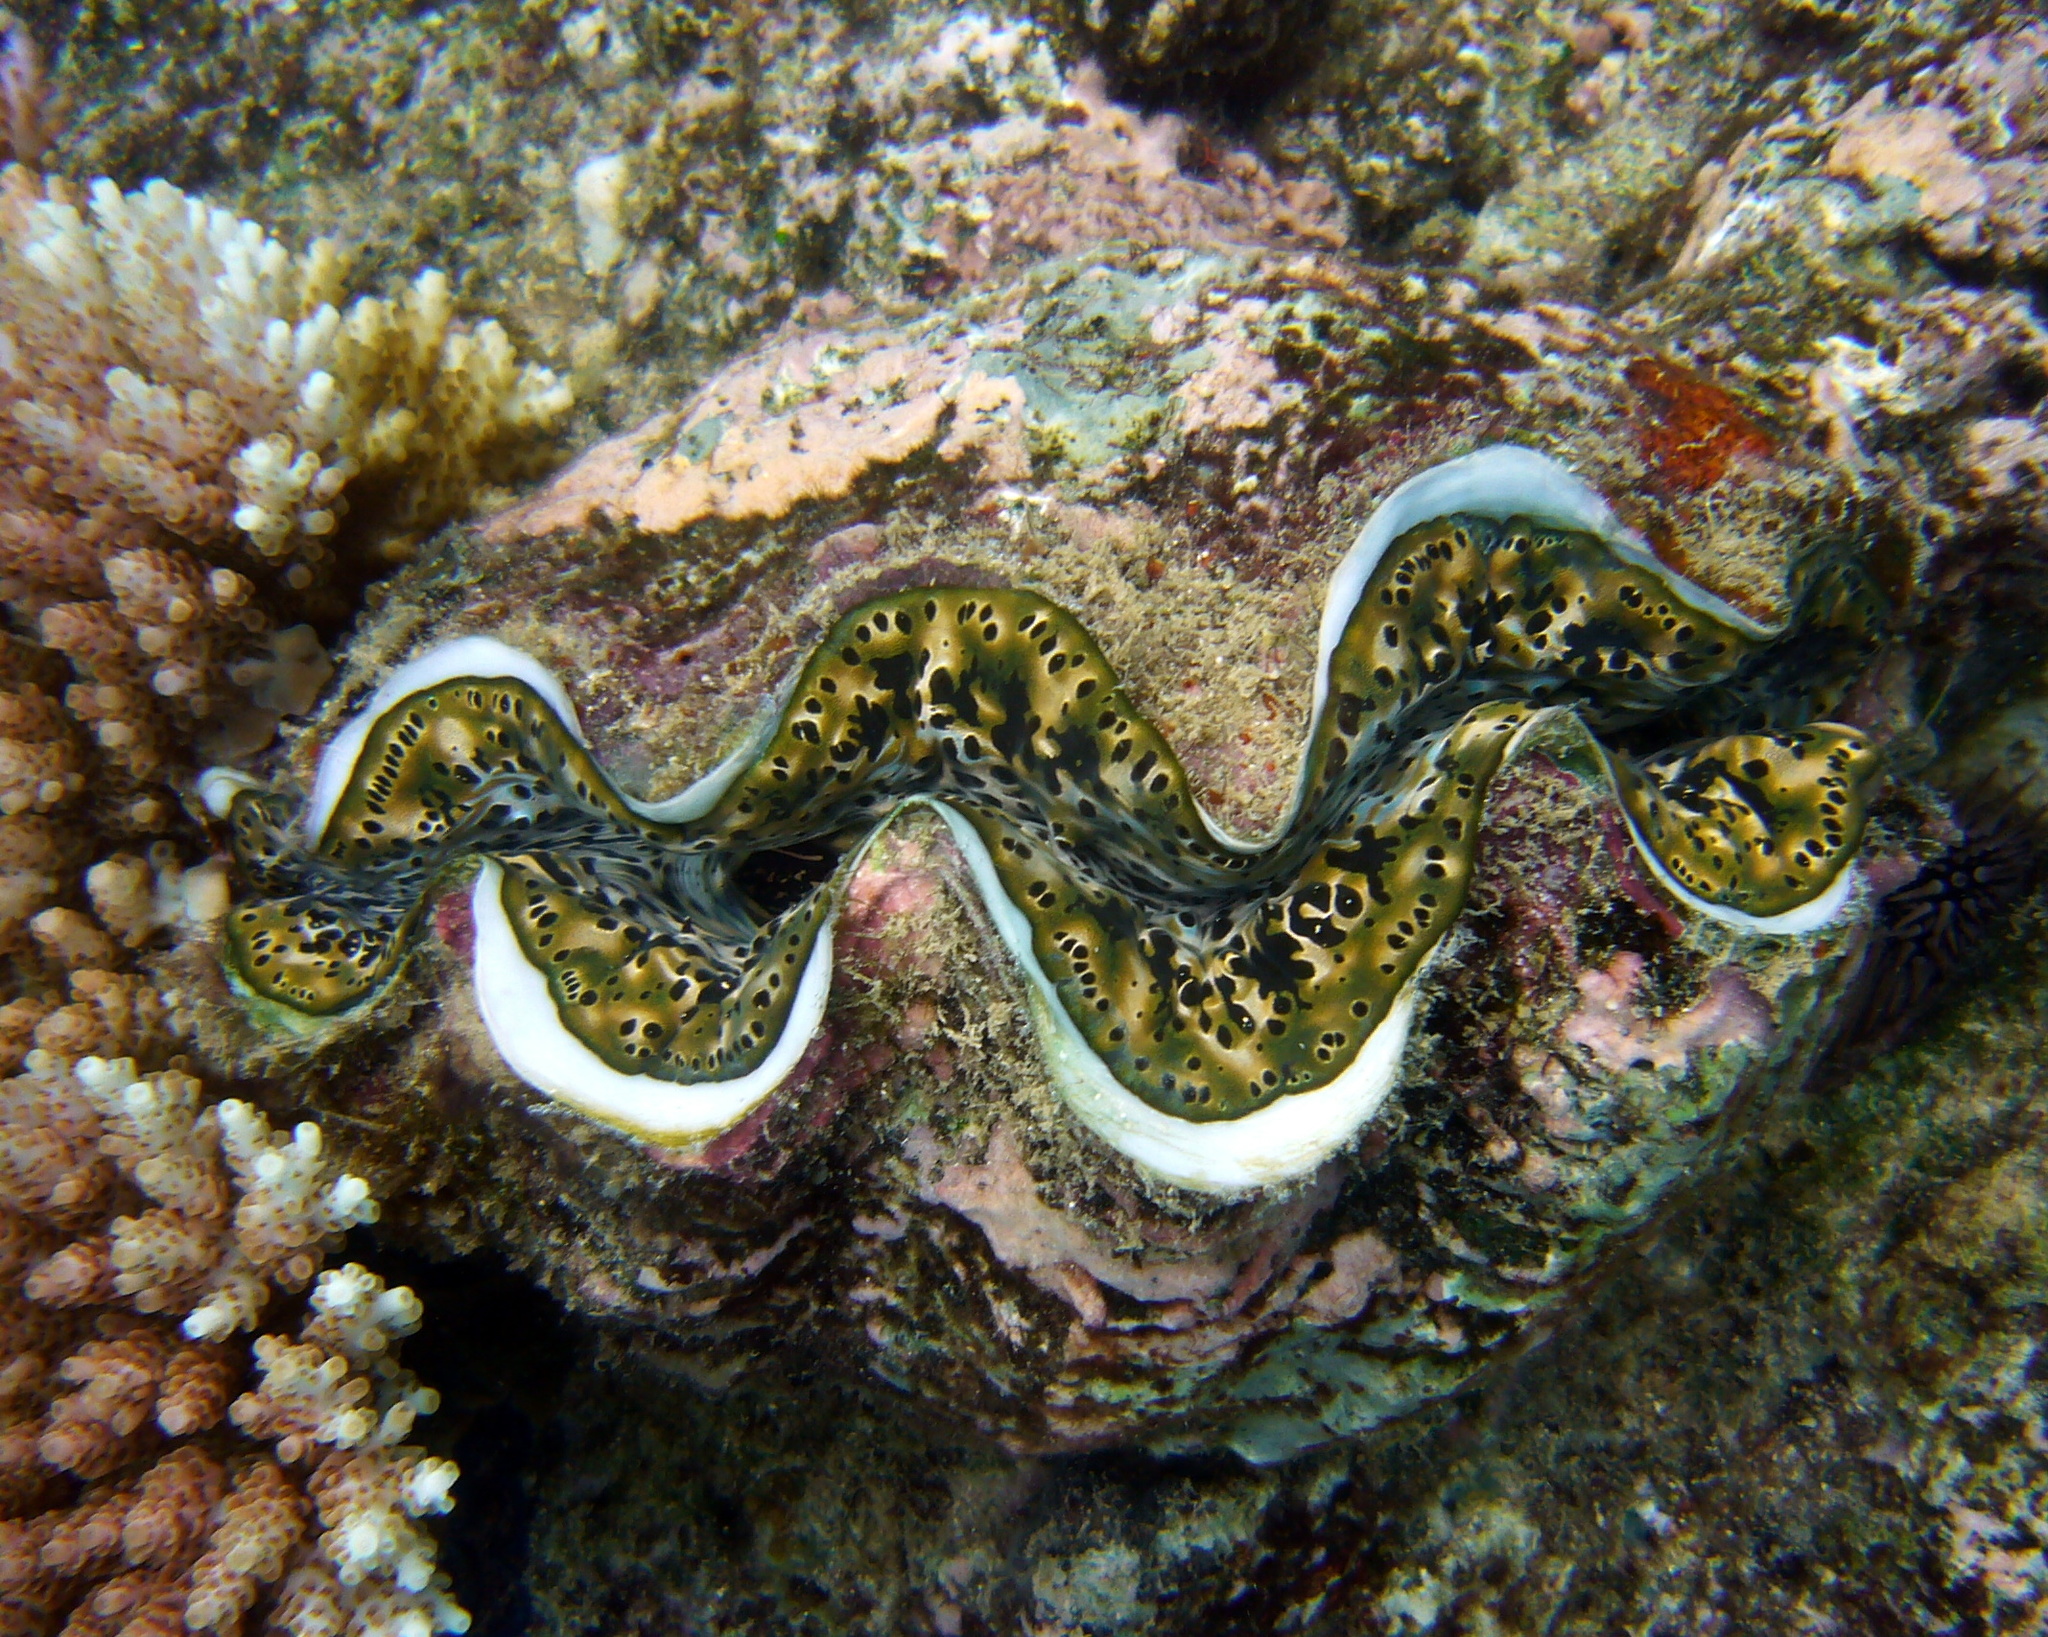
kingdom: Animalia
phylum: Mollusca
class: Bivalvia
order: Cardiida
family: Cardiidae
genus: Tridacna
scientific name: Tridacna maxima
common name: Small giant clam
